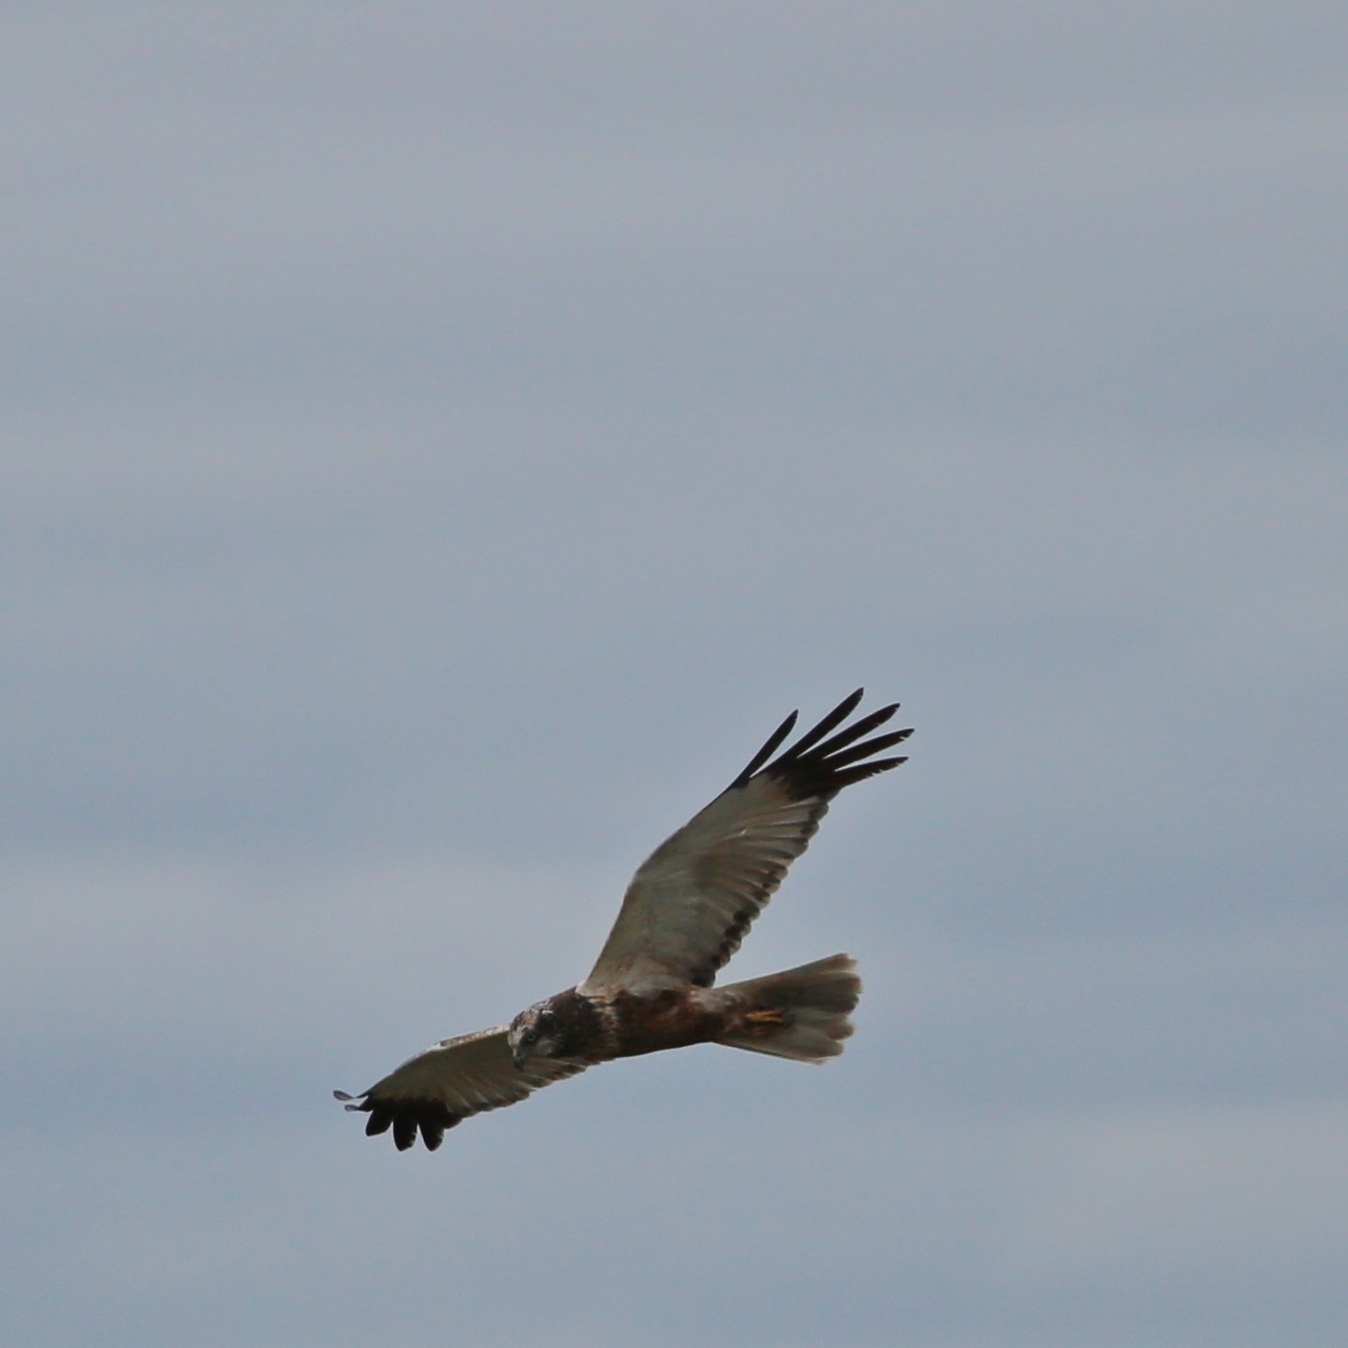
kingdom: Animalia
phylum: Chordata
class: Aves
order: Accipitriformes
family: Accipitridae
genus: Circus
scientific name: Circus aeruginosus
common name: Western marsh harrier
